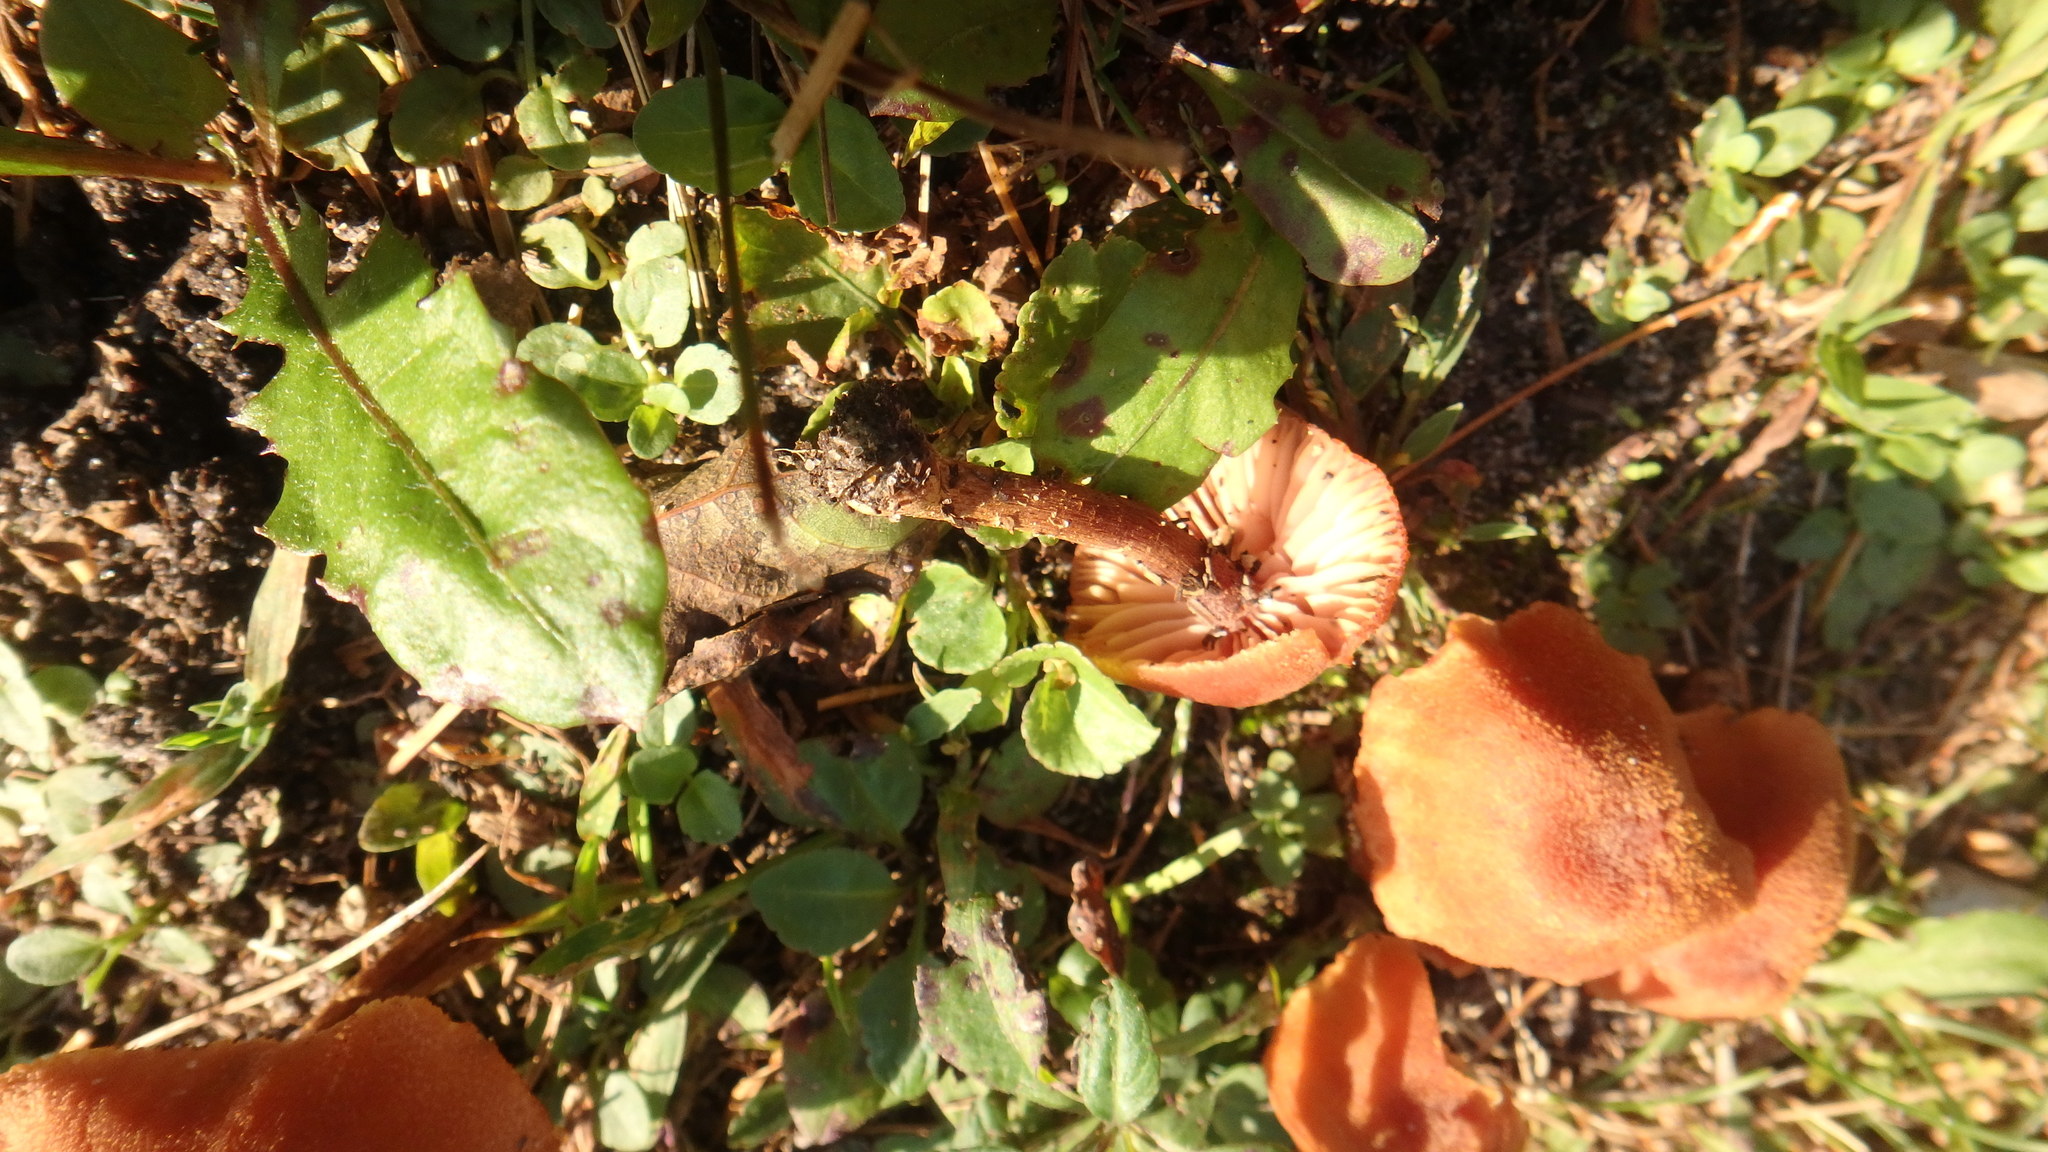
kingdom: Fungi
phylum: Basidiomycota
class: Agaricomycetes
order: Agaricales
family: Hydnangiaceae
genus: Laccaria
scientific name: Laccaria proxima
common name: Scurfy deceiver
